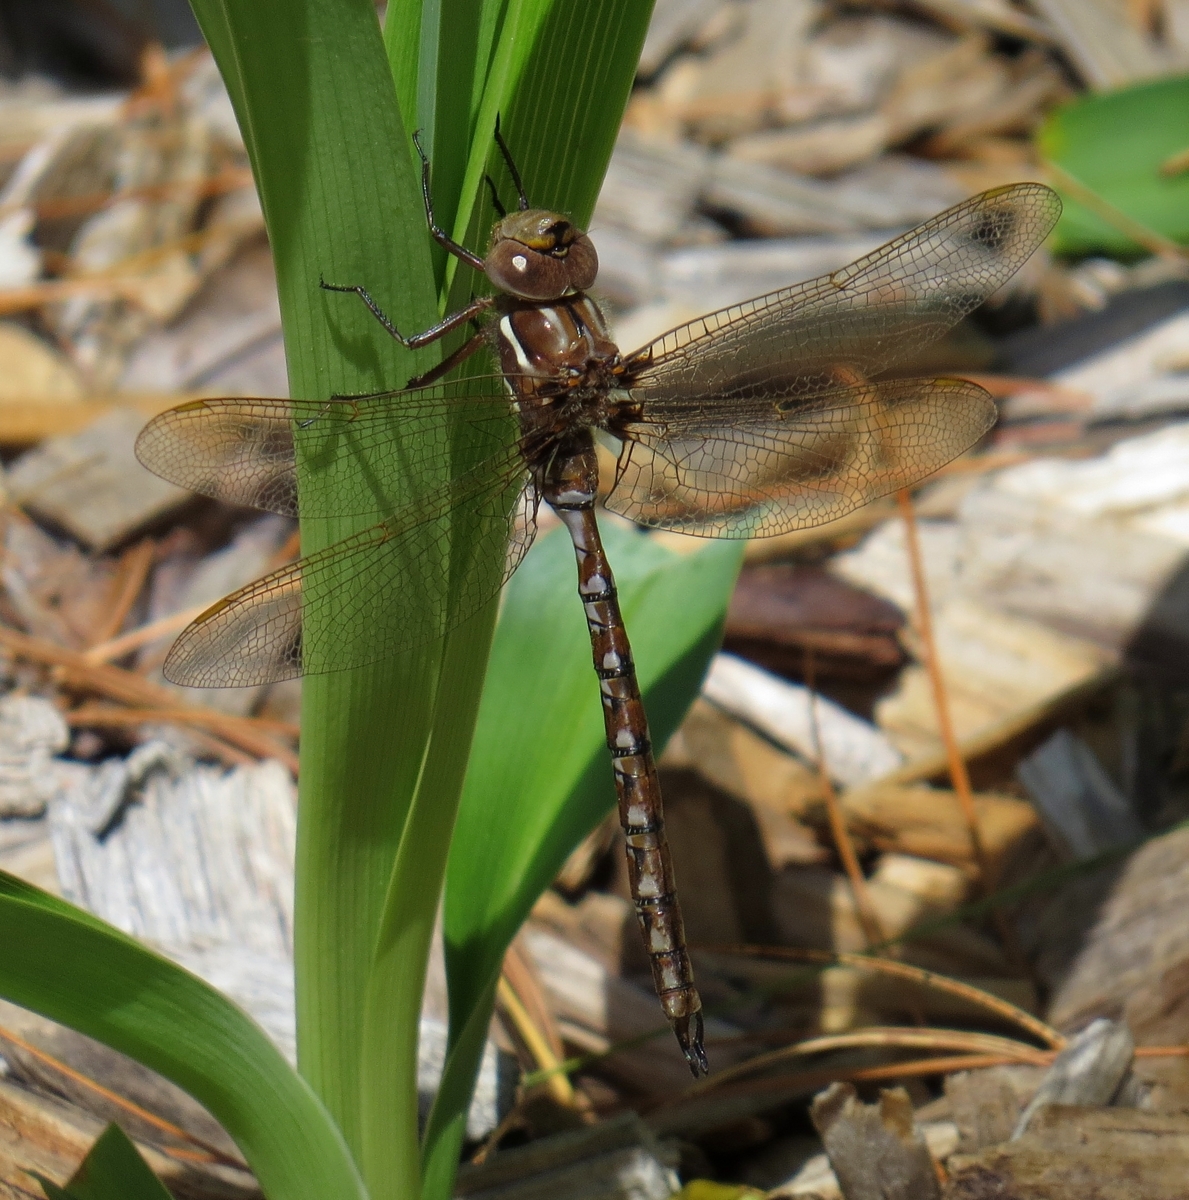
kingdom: Animalia
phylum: Arthropoda
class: Insecta
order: Odonata
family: Aeshnidae
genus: Basiaeschna
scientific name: Basiaeschna janata
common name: Springtime darner
